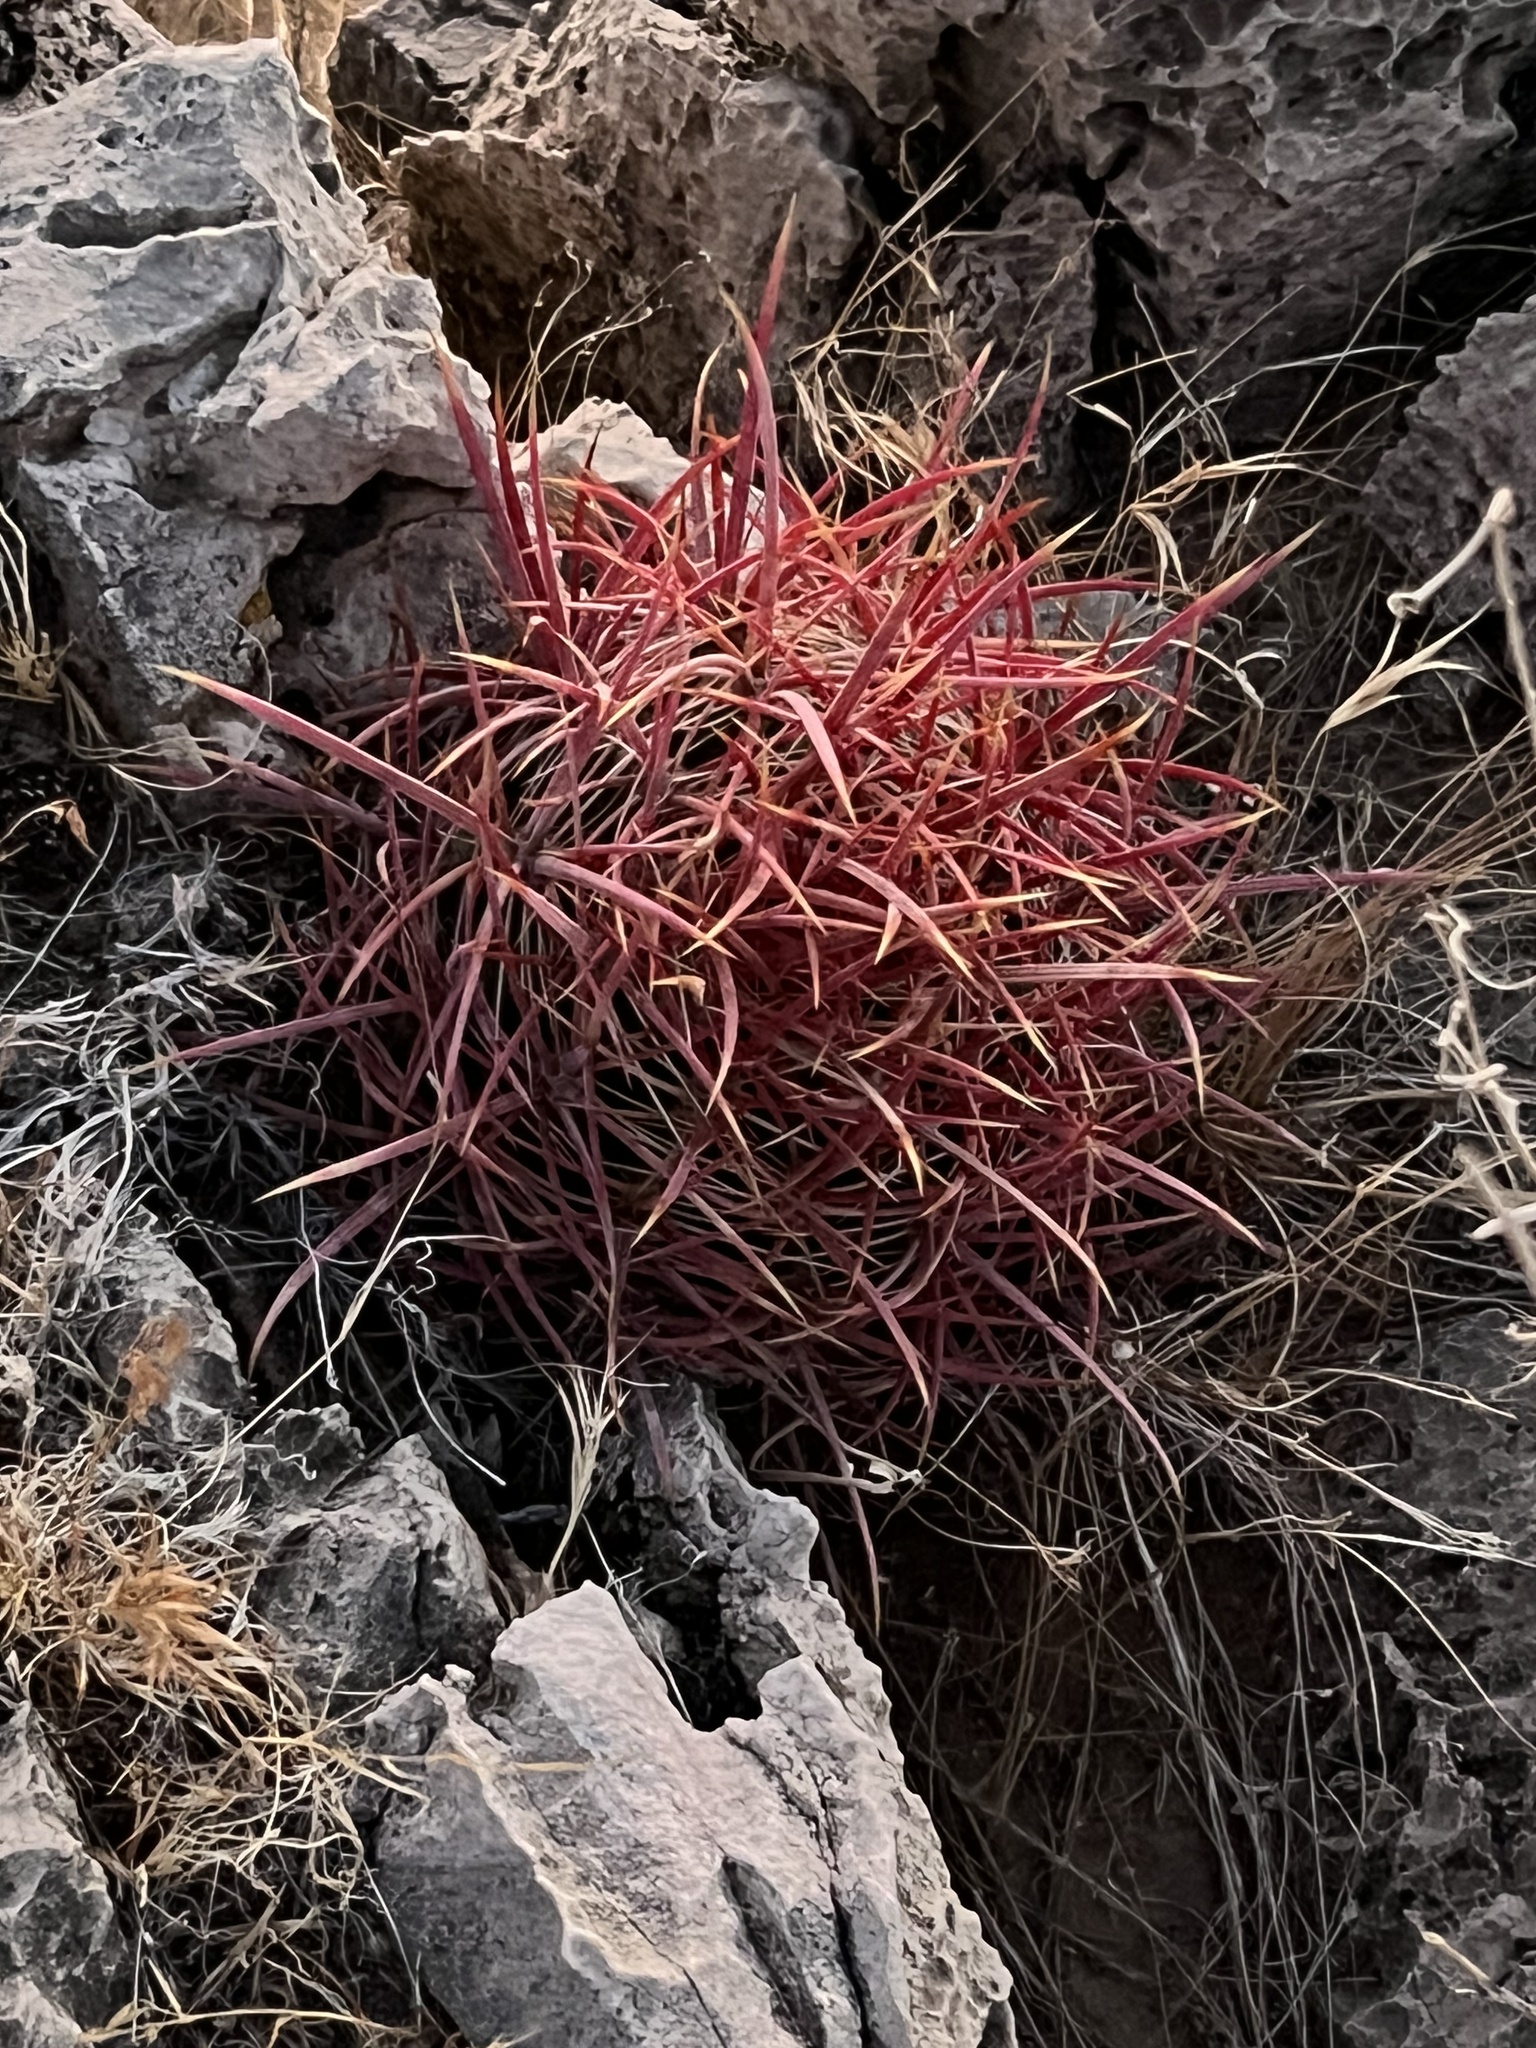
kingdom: Plantae
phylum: Tracheophyta
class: Magnoliopsida
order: Caryophyllales
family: Cactaceae
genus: Ferocactus
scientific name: Ferocactus cylindraceus
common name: California barrel cactus
